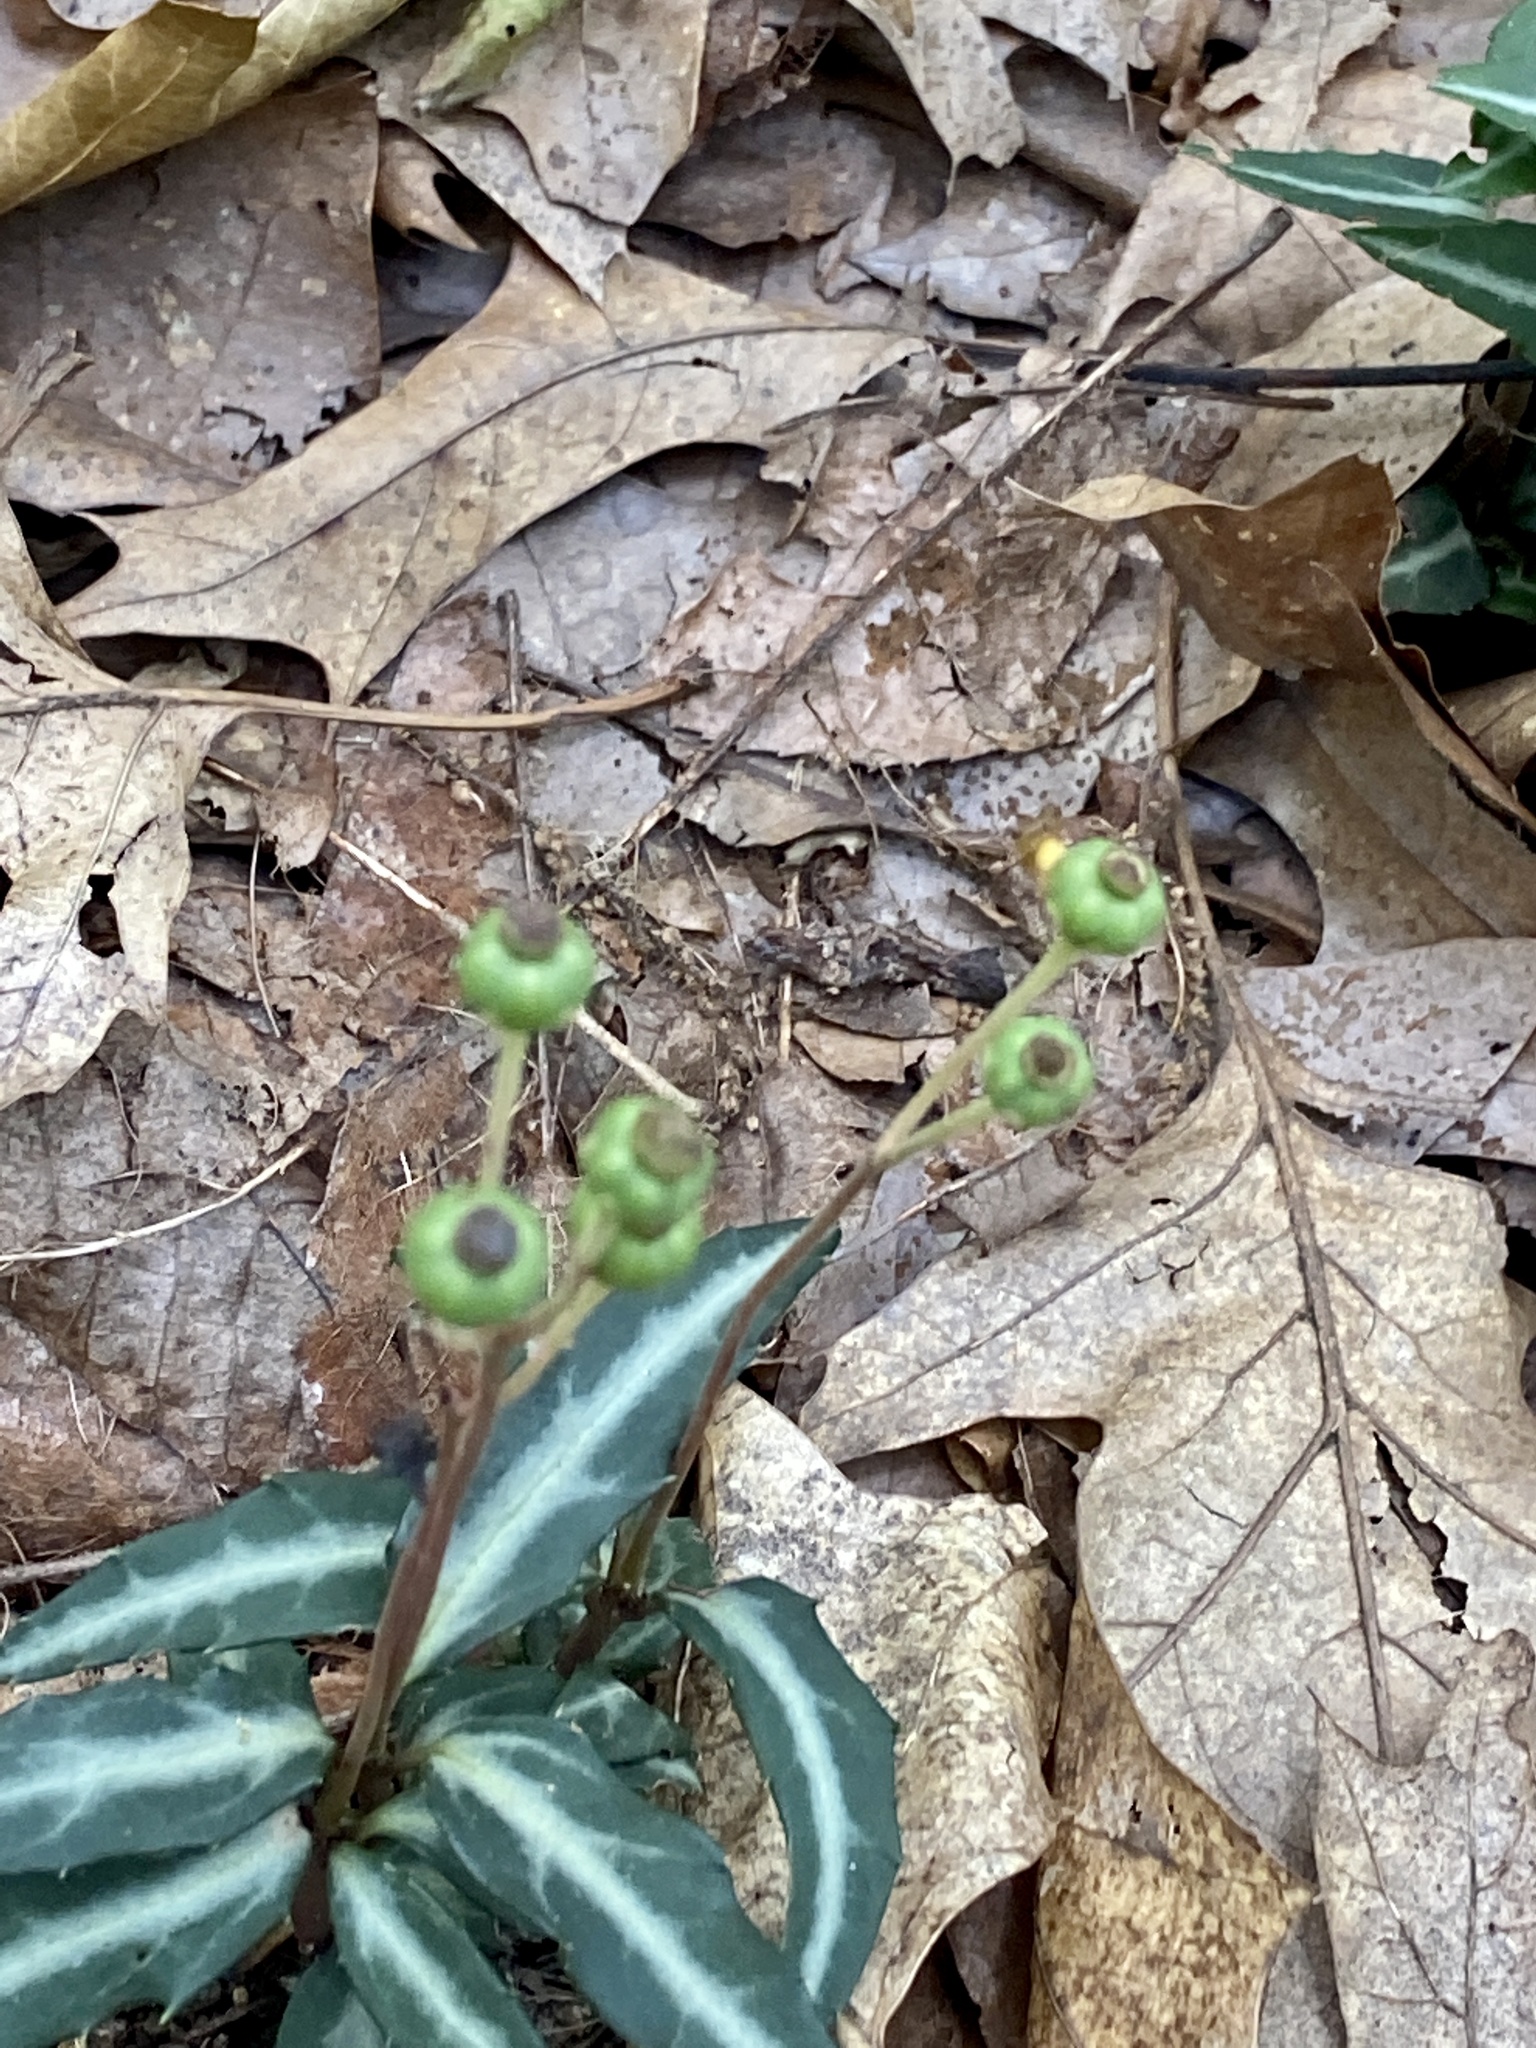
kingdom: Plantae
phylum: Tracheophyta
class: Magnoliopsida
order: Ericales
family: Ericaceae
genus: Chimaphila
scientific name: Chimaphila maculata
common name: Spotted pipsissewa
